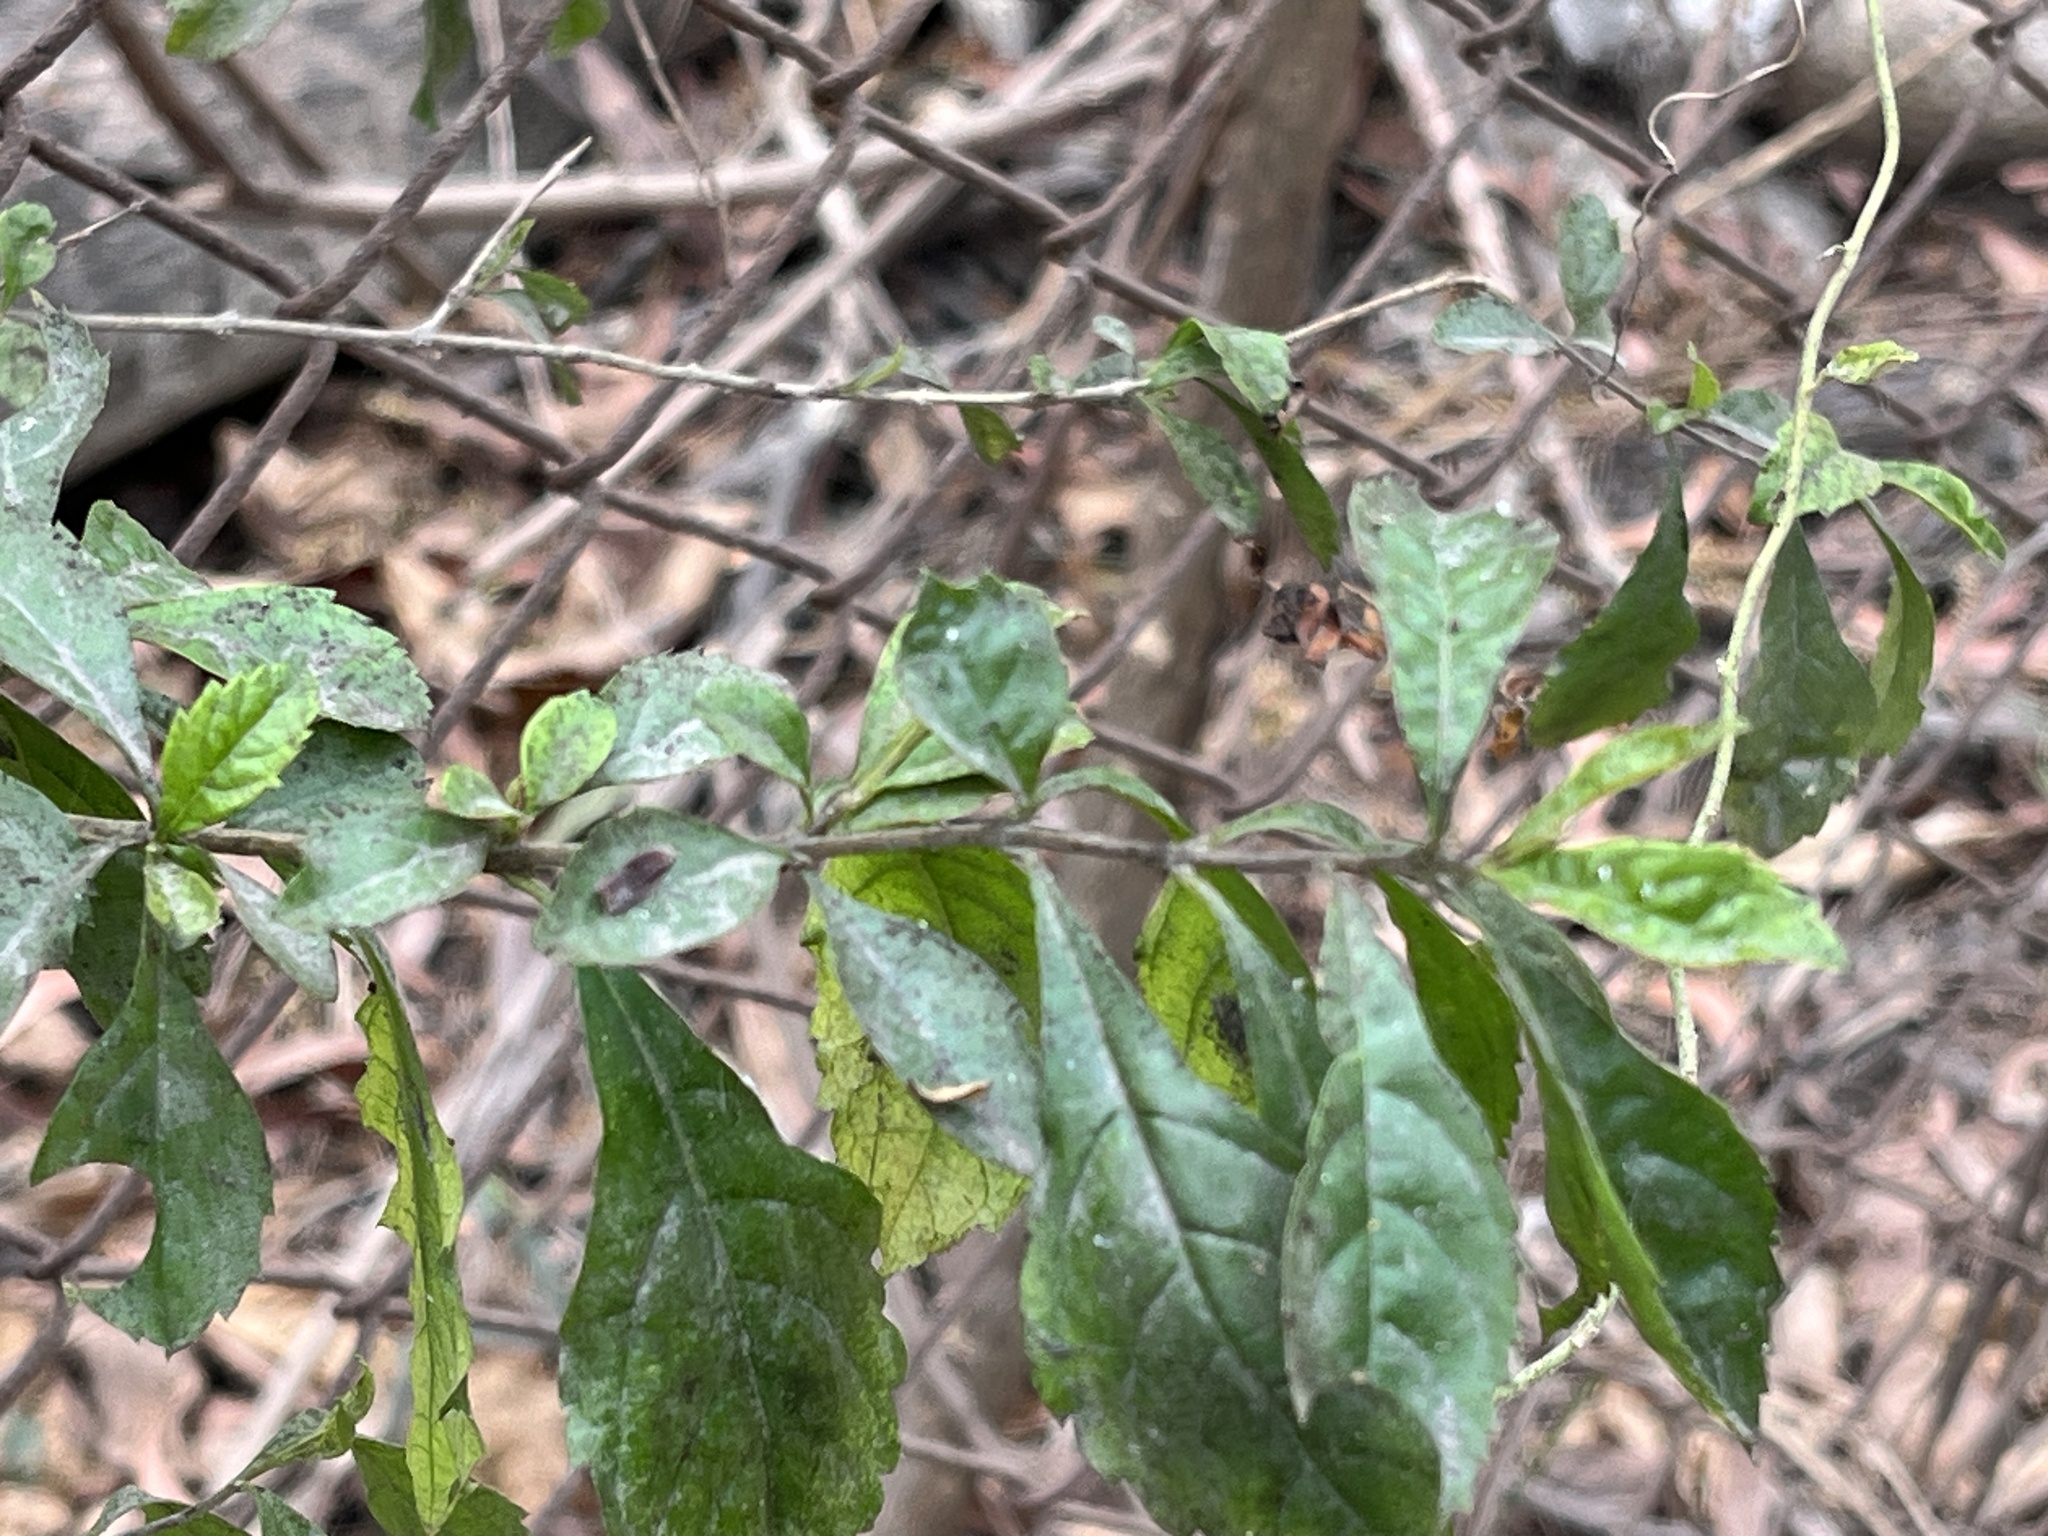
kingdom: Plantae
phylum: Tracheophyta
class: Magnoliopsida
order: Solanales
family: Solanaceae
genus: Solanum
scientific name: Solanum diphyllum
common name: Twoleaf nightshade
